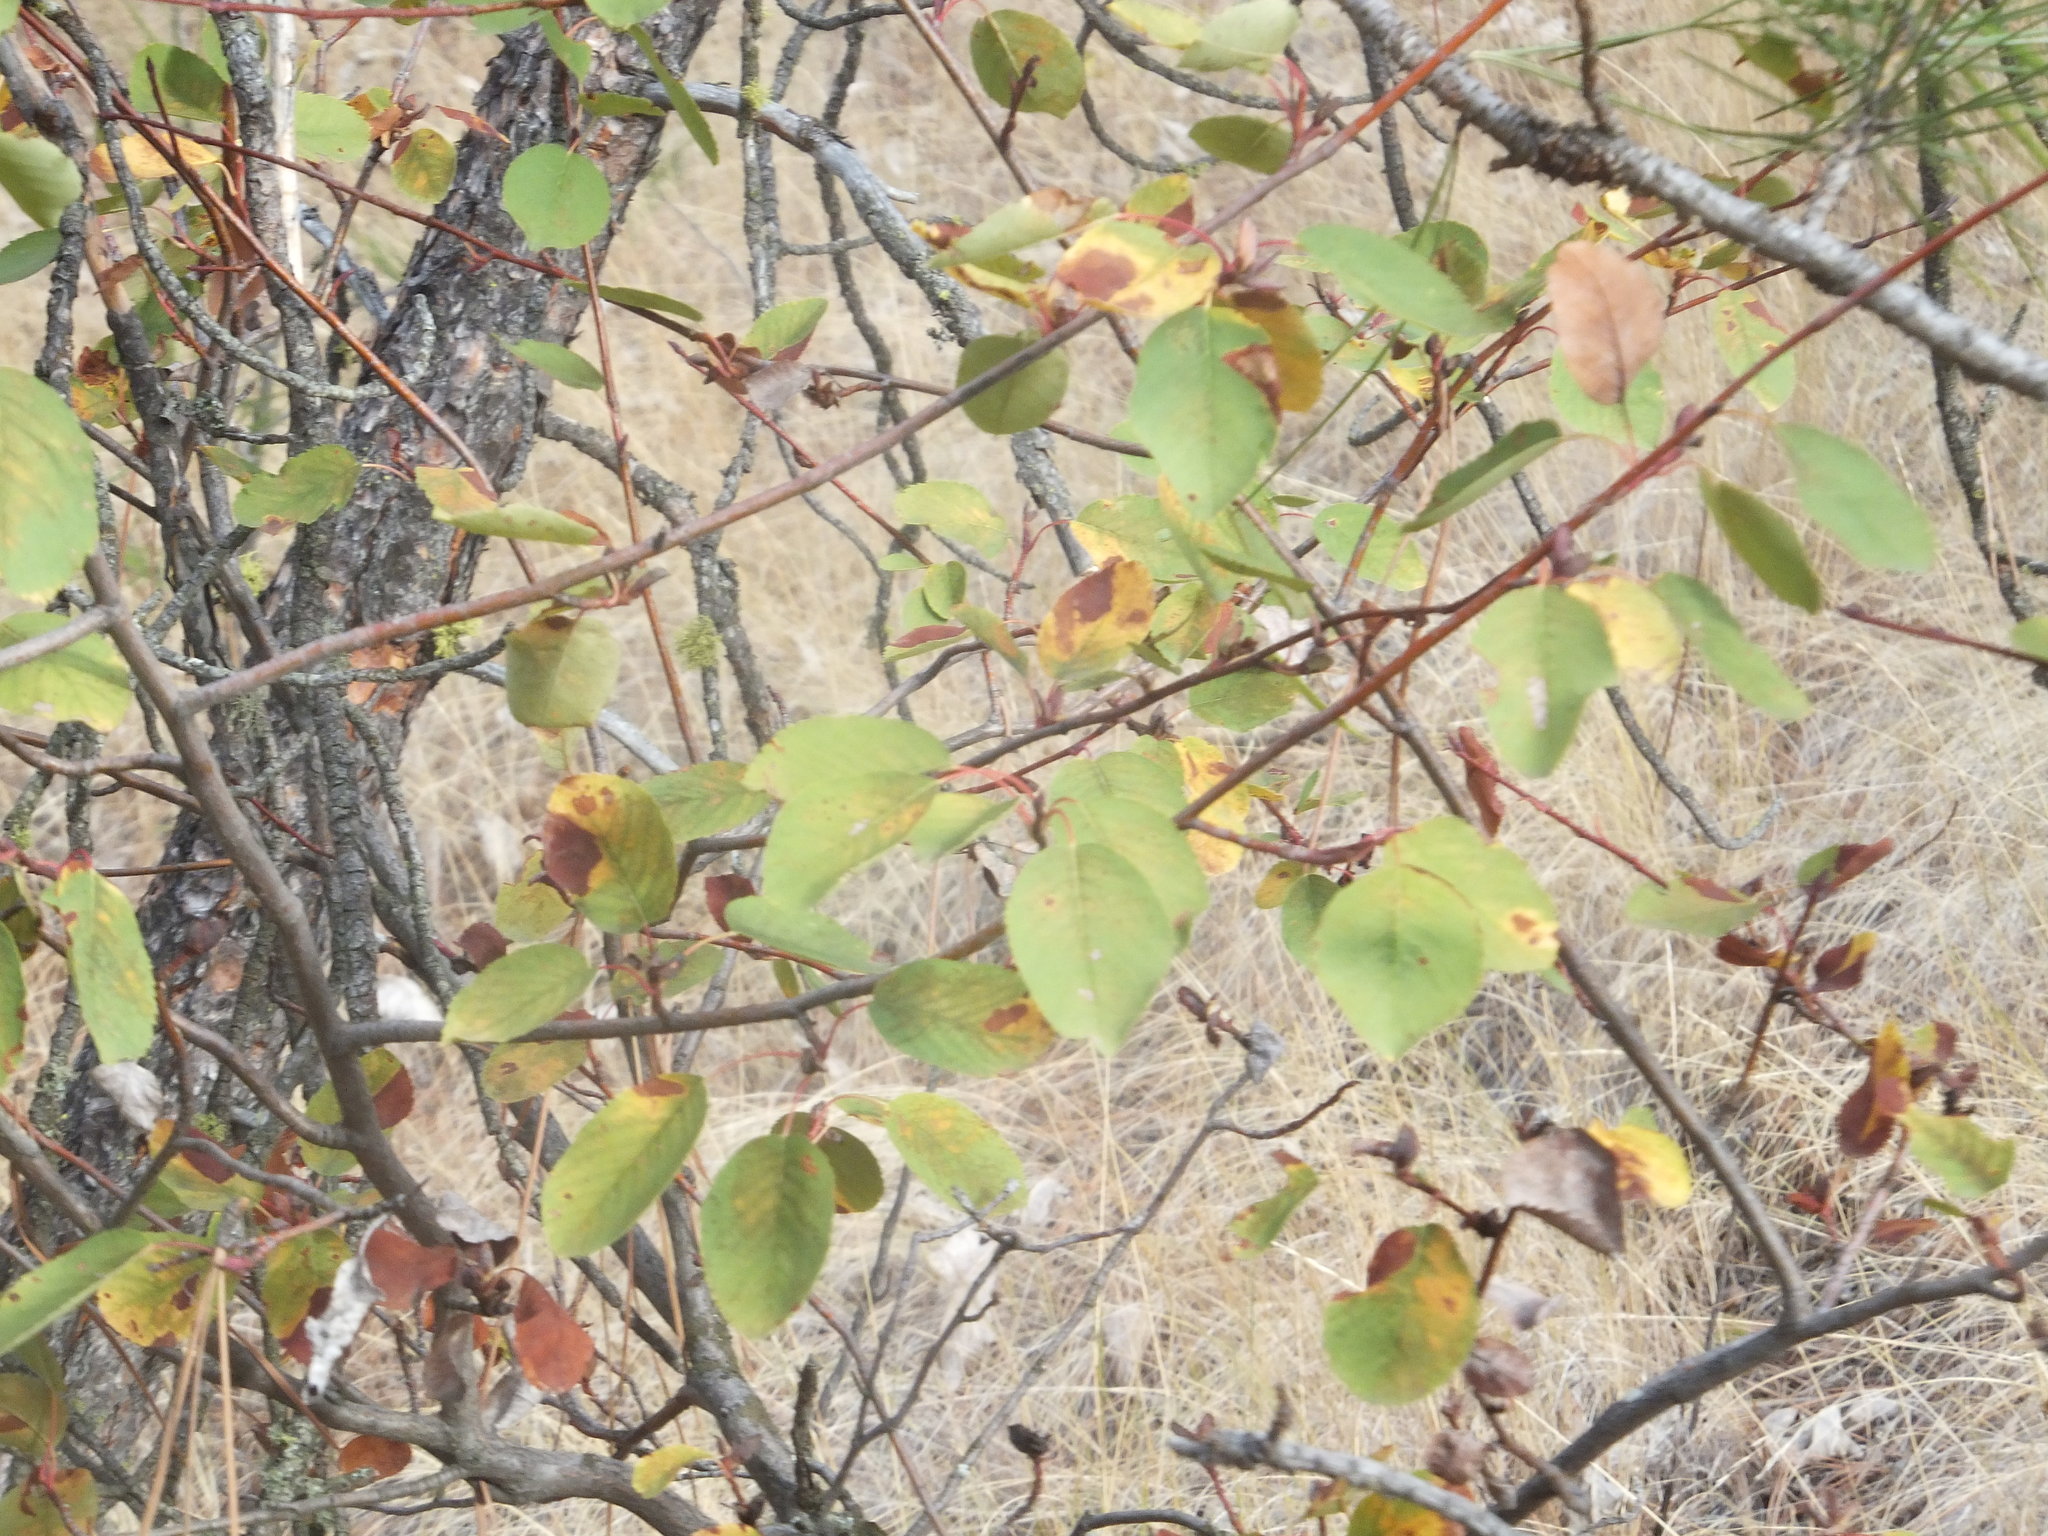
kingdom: Plantae
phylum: Tracheophyta
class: Magnoliopsida
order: Rosales
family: Rosaceae
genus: Amelanchier
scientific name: Amelanchier alnifolia
